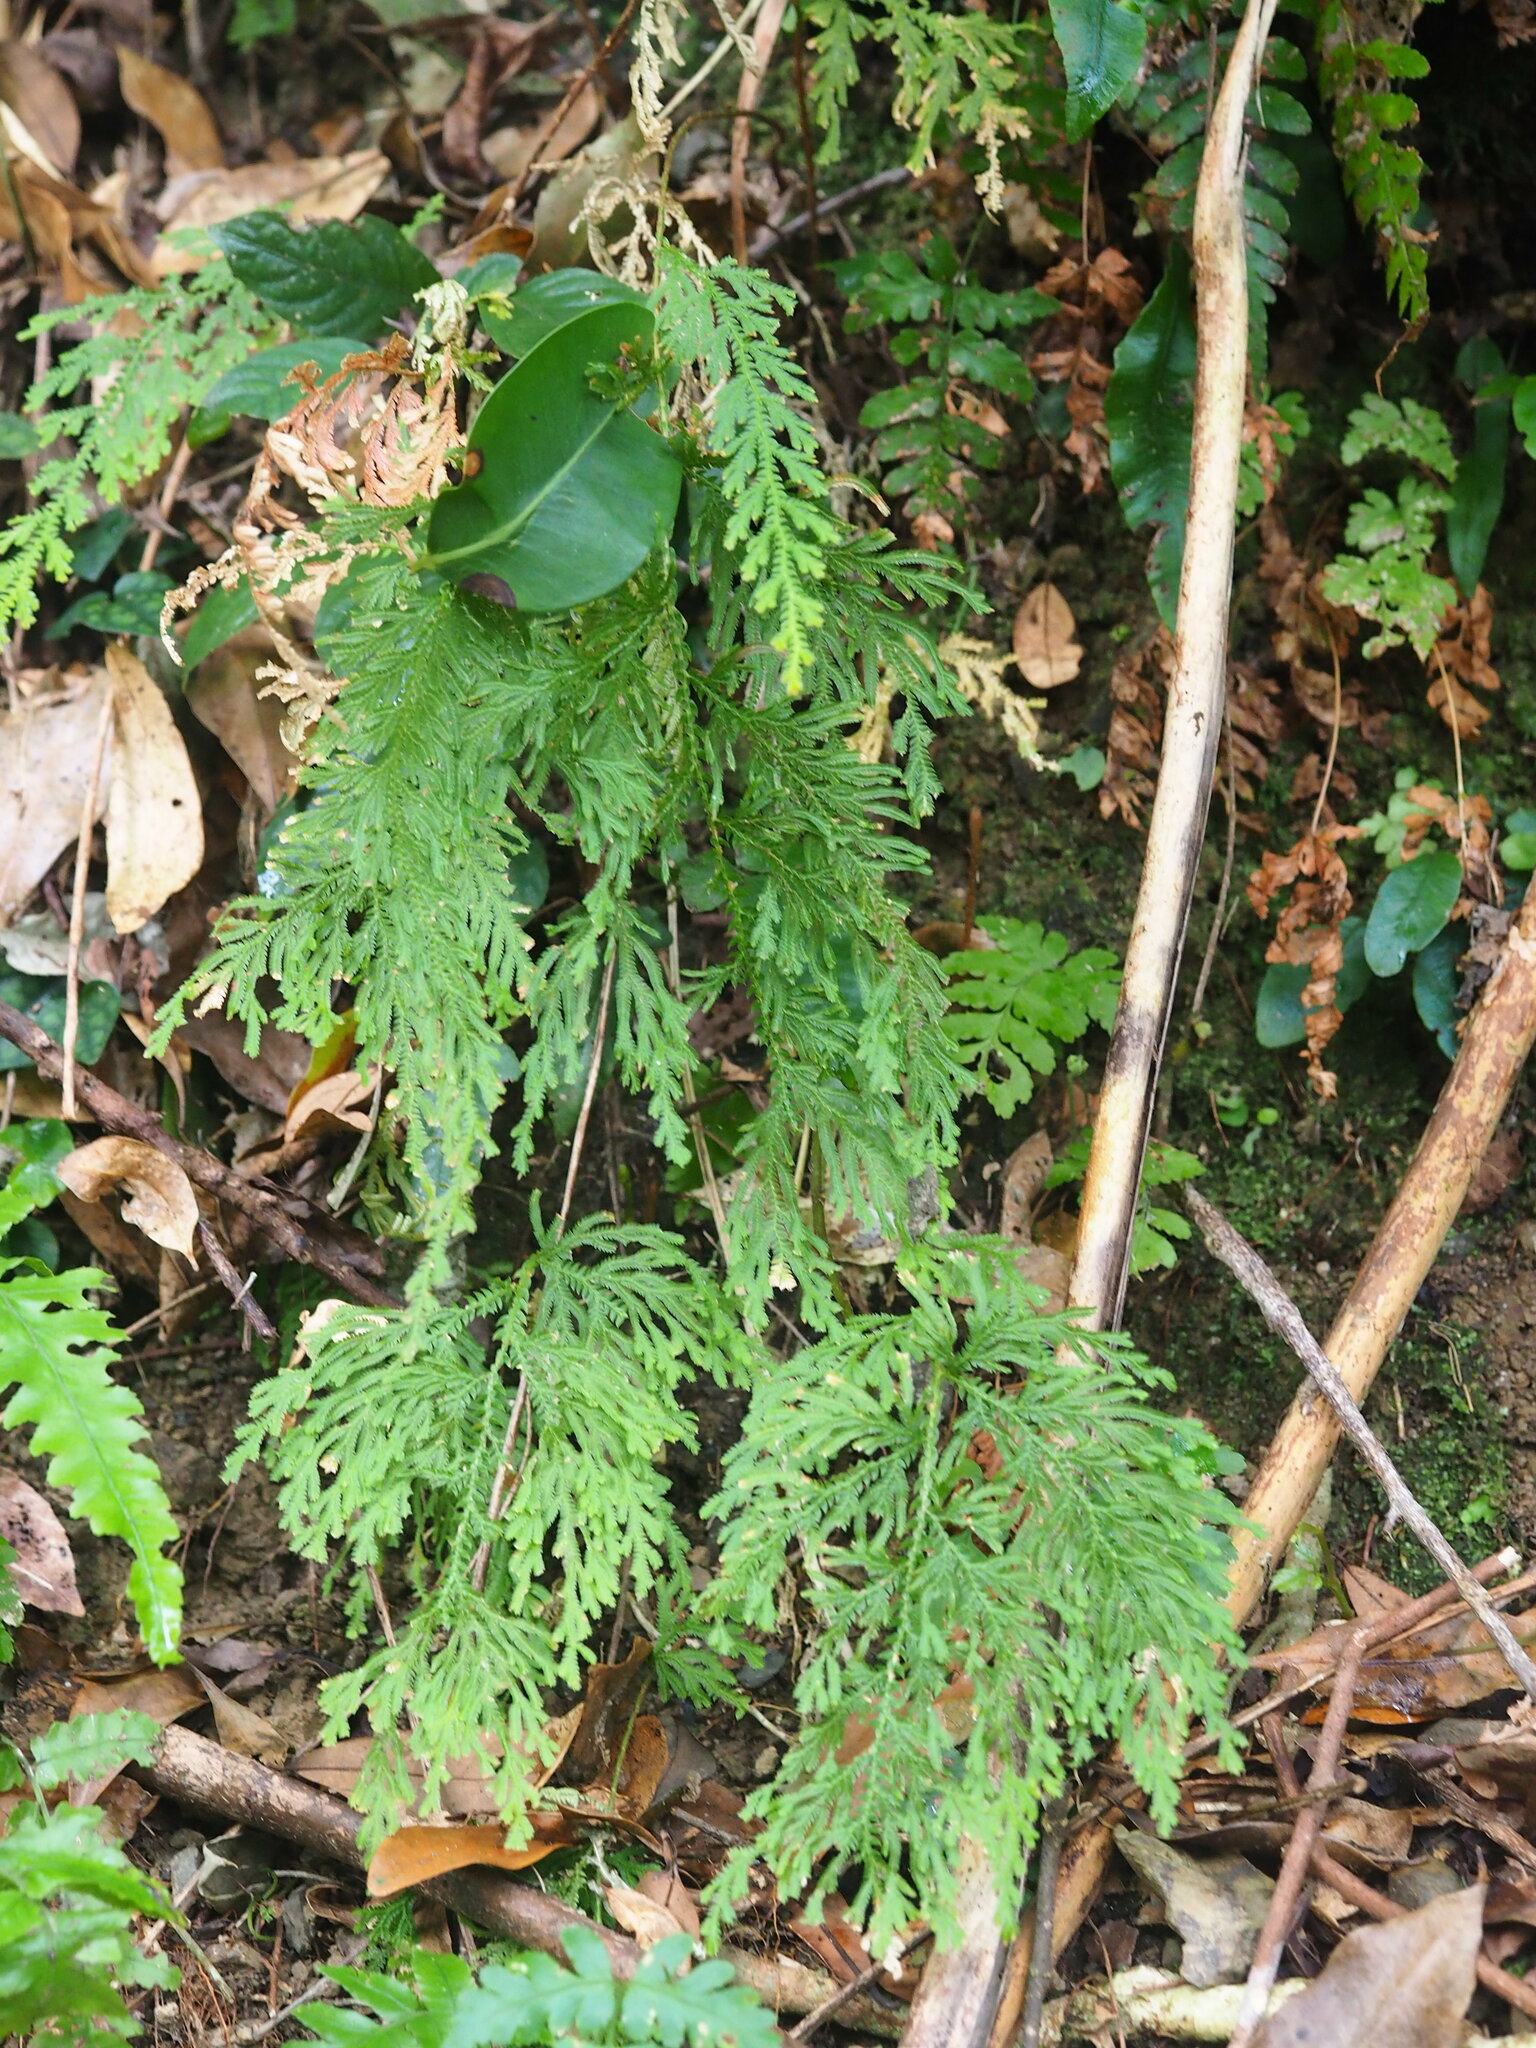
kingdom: Plantae
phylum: Tracheophyta
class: Lycopodiopsida
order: Selaginellales
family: Selaginellaceae
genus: Selaginella
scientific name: Selaginella moellendorffii
